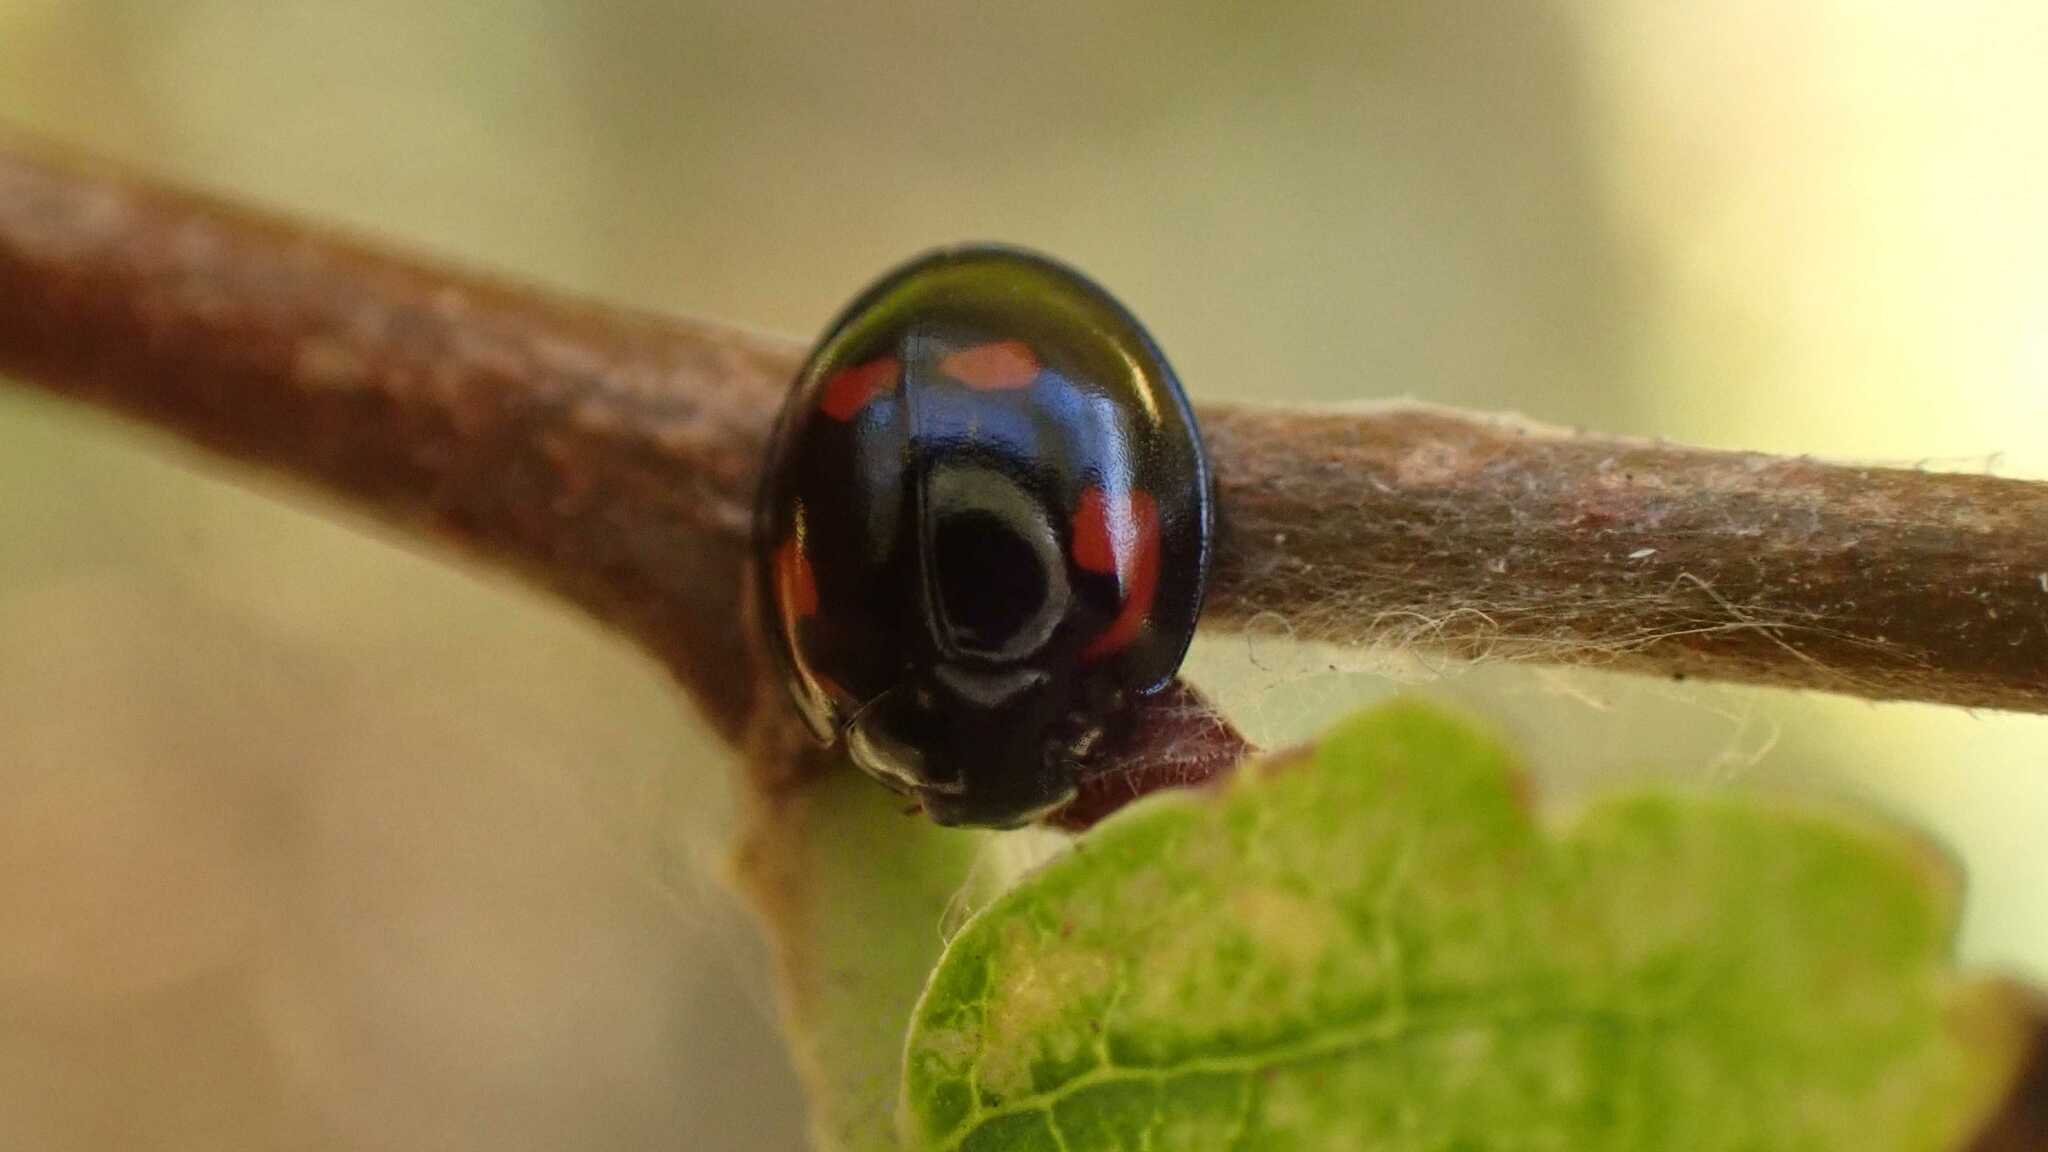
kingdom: Animalia
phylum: Arthropoda
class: Insecta
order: Coleoptera
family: Coccinellidae
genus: Brumus
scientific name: Brumus quadripustulatus
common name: Ladybird beetle
